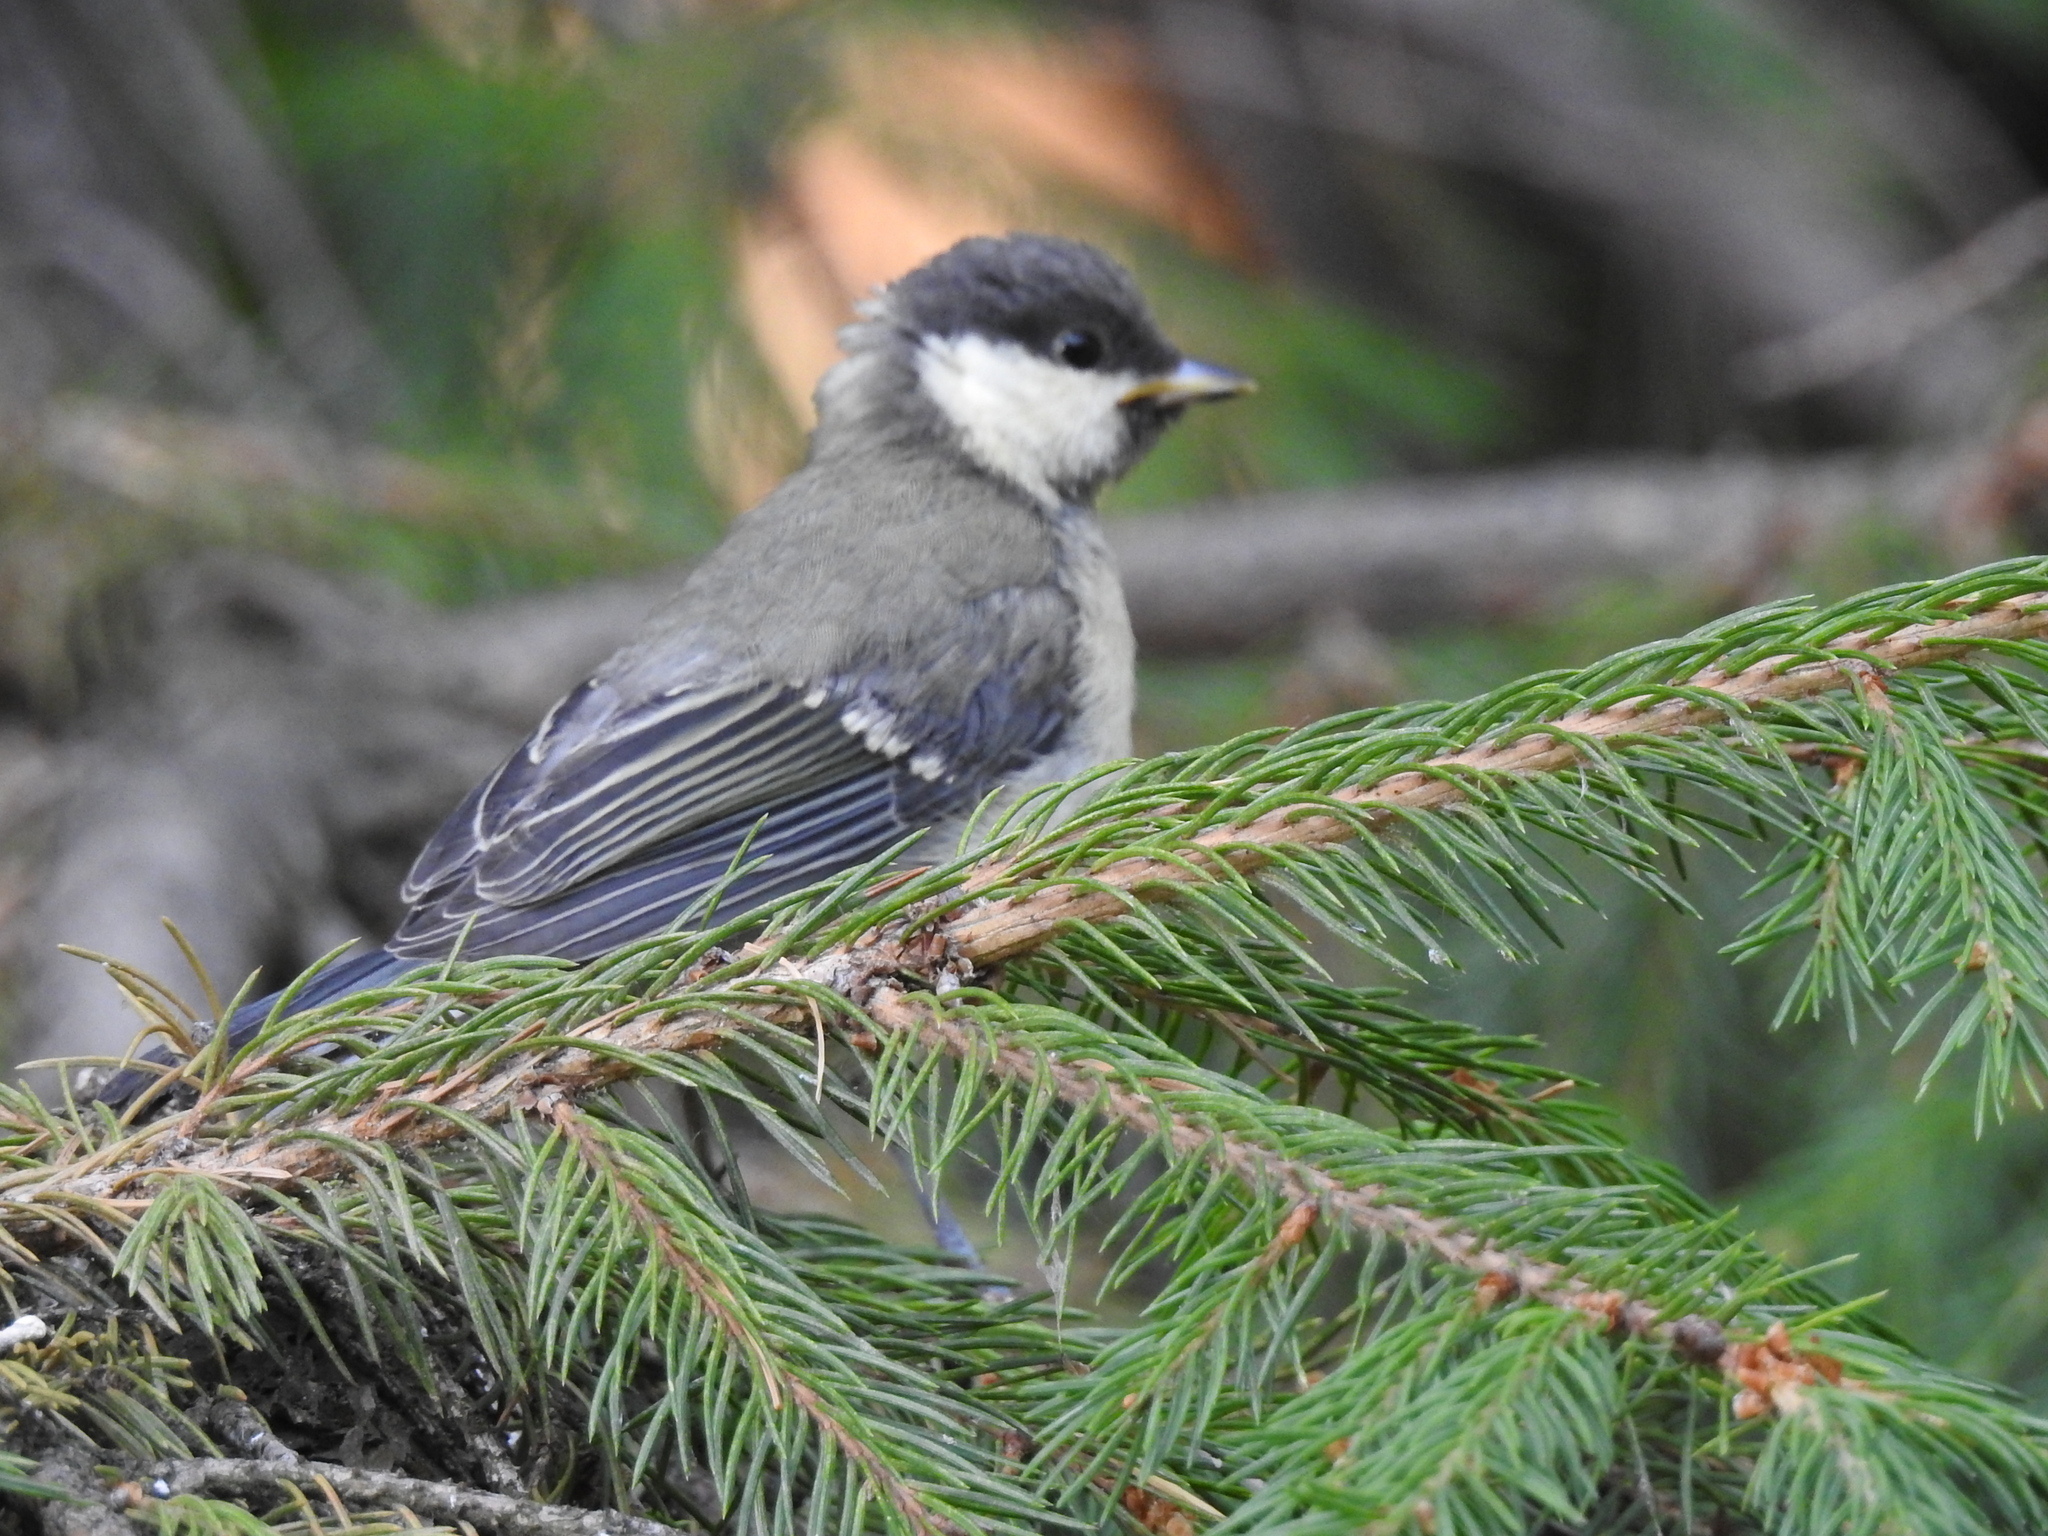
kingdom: Animalia
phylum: Chordata
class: Aves
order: Passeriformes
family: Paridae
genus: Parus
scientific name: Parus major
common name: Great tit
